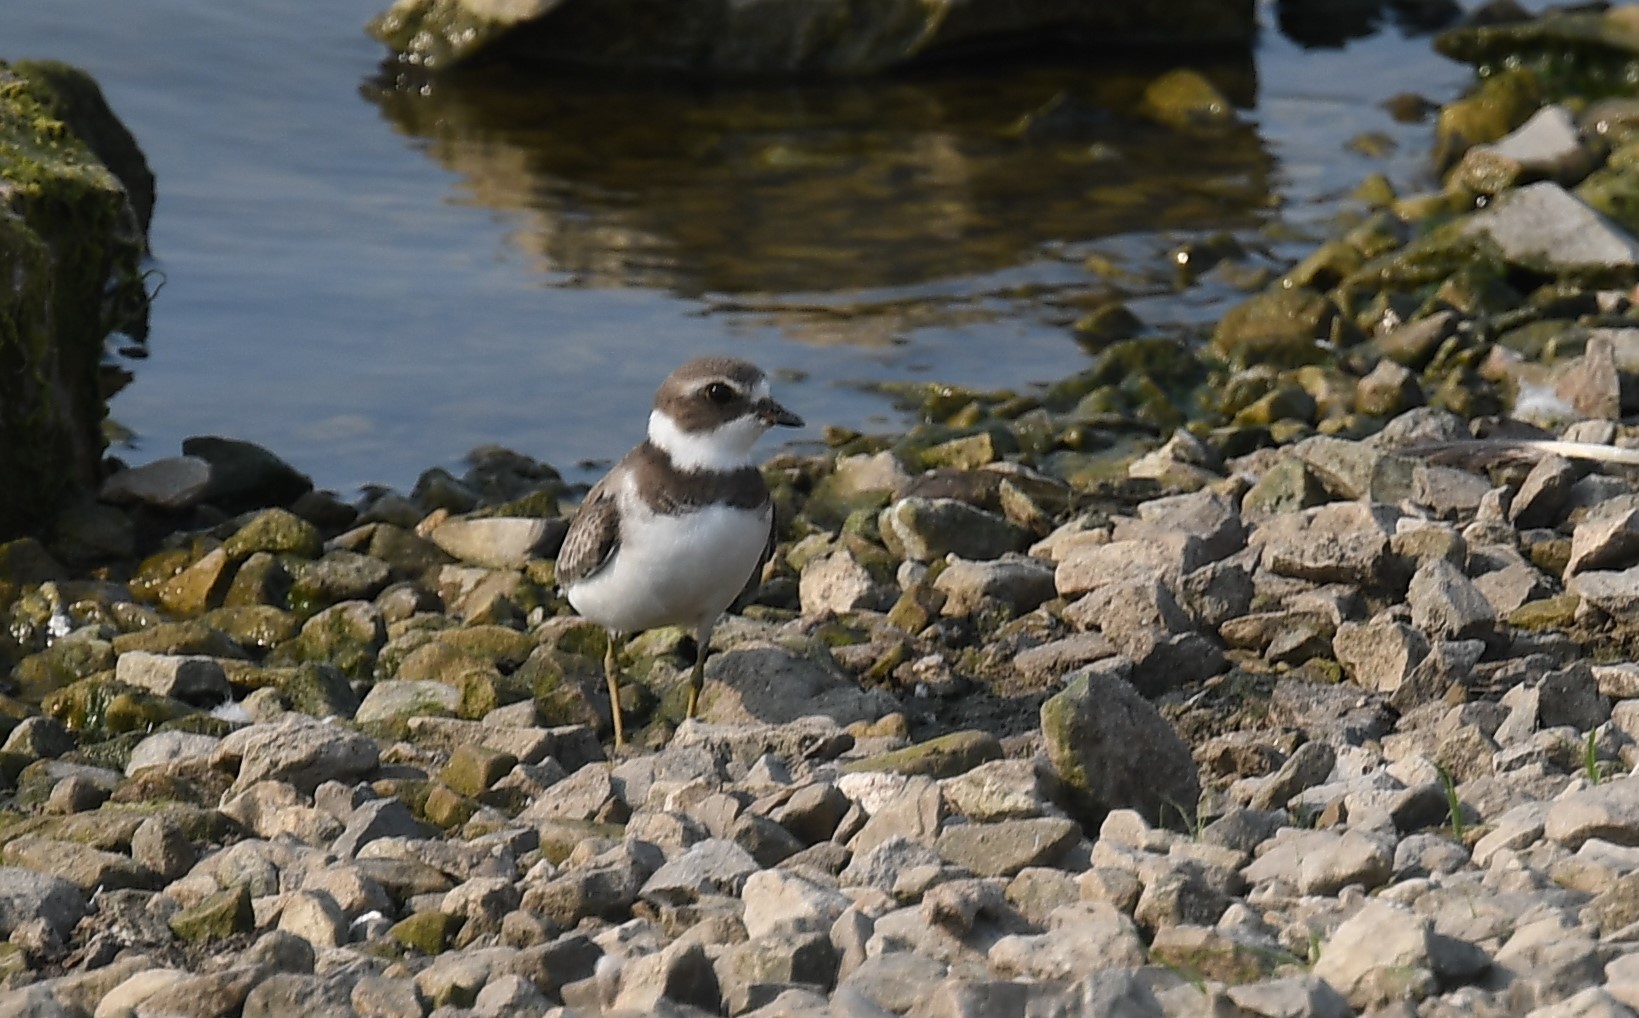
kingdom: Animalia
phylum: Chordata
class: Aves
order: Charadriiformes
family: Charadriidae
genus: Charadrius
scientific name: Charadrius semipalmatus
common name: Semipalmated plover
